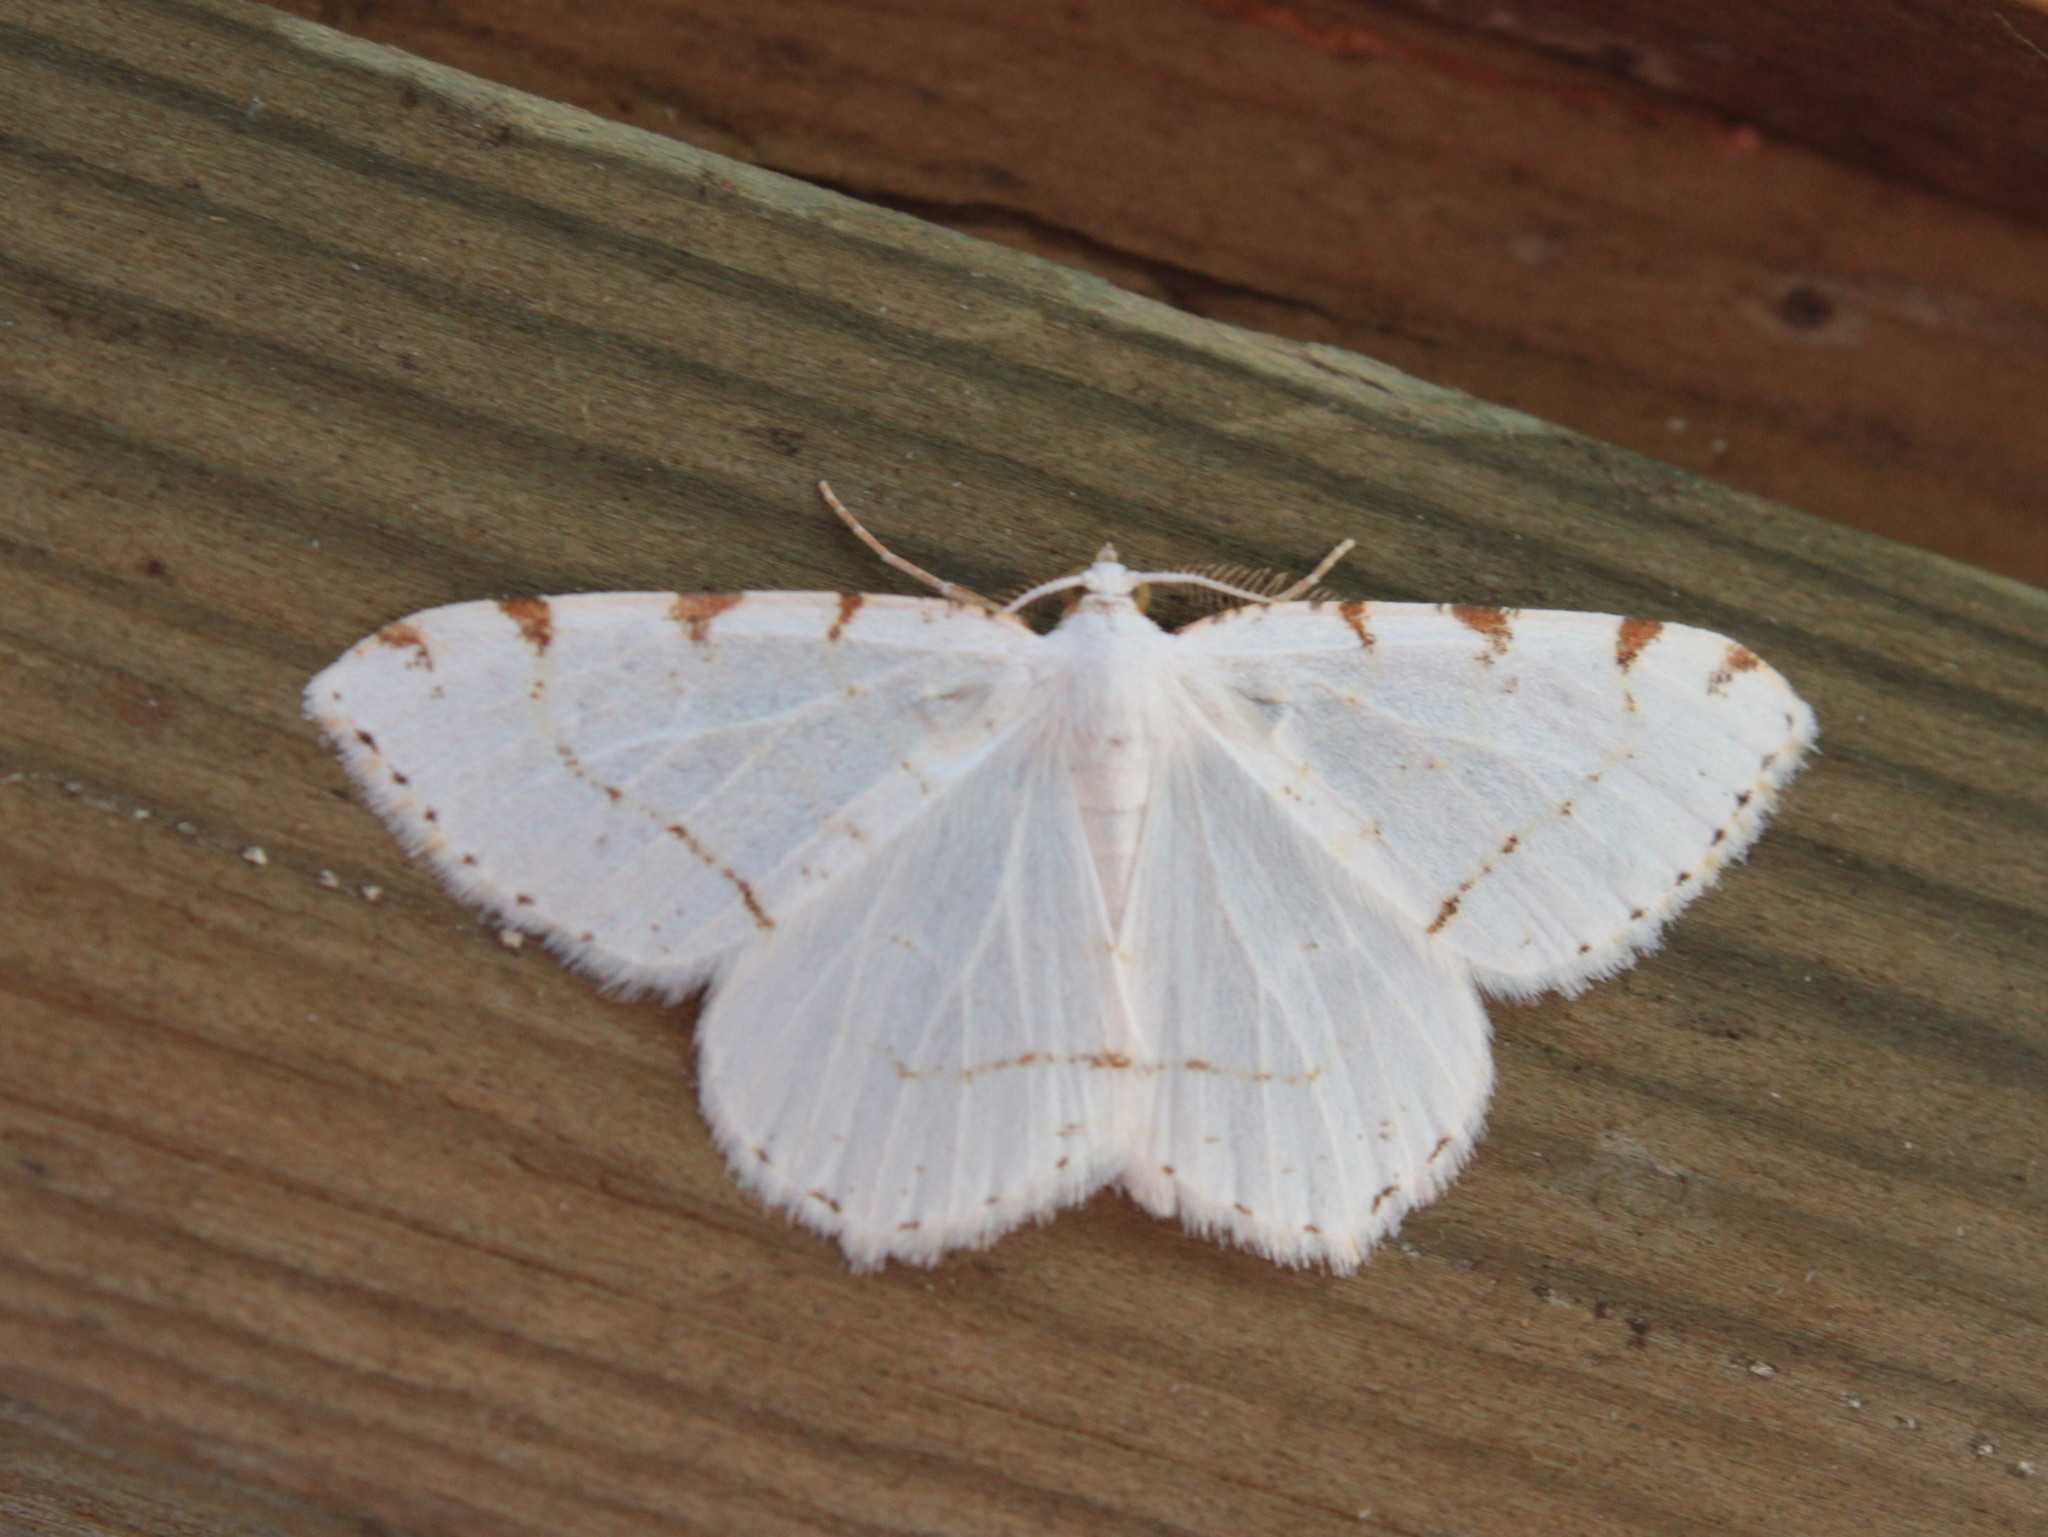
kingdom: Animalia
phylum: Arthropoda
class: Insecta
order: Lepidoptera
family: Geometridae
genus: Macaria
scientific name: Macaria pustularia
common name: Lesser maple spanworm moth
